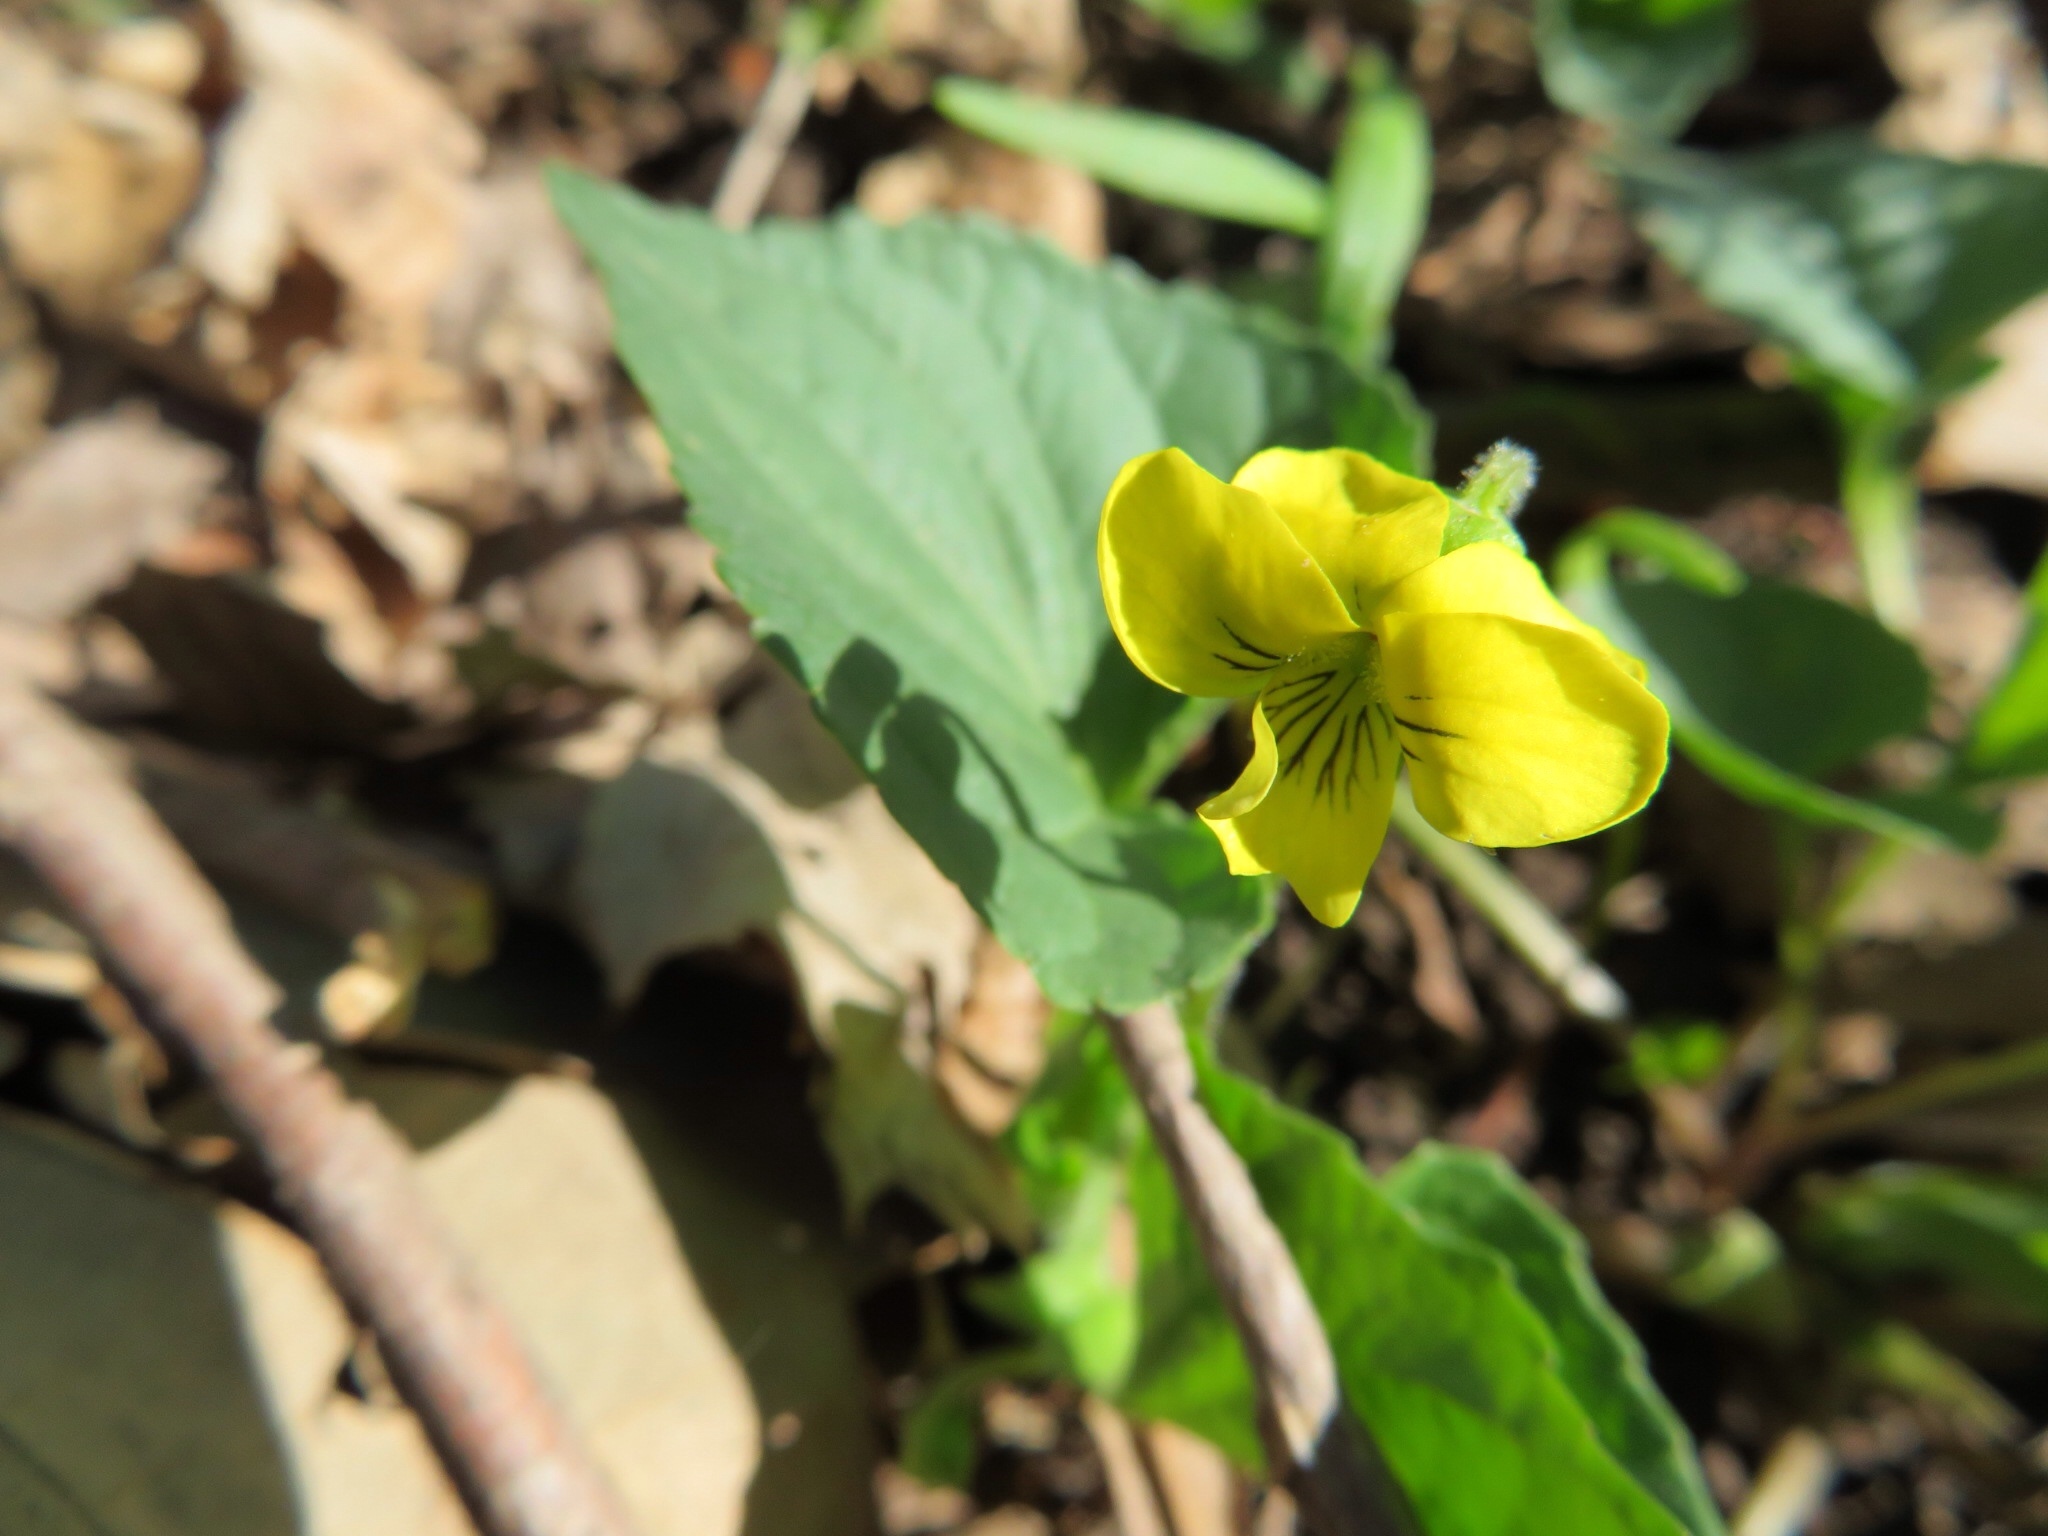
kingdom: Plantae
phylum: Tracheophyta
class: Magnoliopsida
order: Malpighiales
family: Violaceae
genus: Viola
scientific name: Viola eriocarpa
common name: Smooth yellow violet
